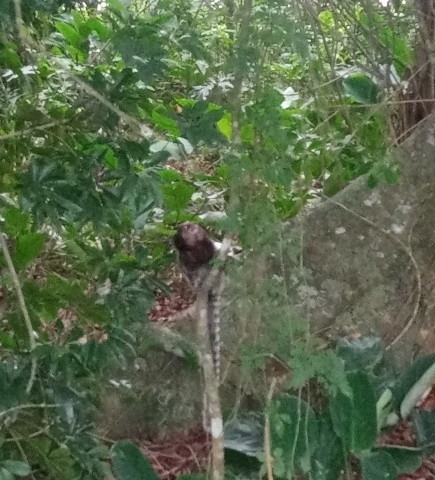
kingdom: Animalia
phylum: Chordata
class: Mammalia
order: Primates
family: Callitrichidae
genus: Callithrix
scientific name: Callithrix penicillata
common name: Black-tufted marmoset
